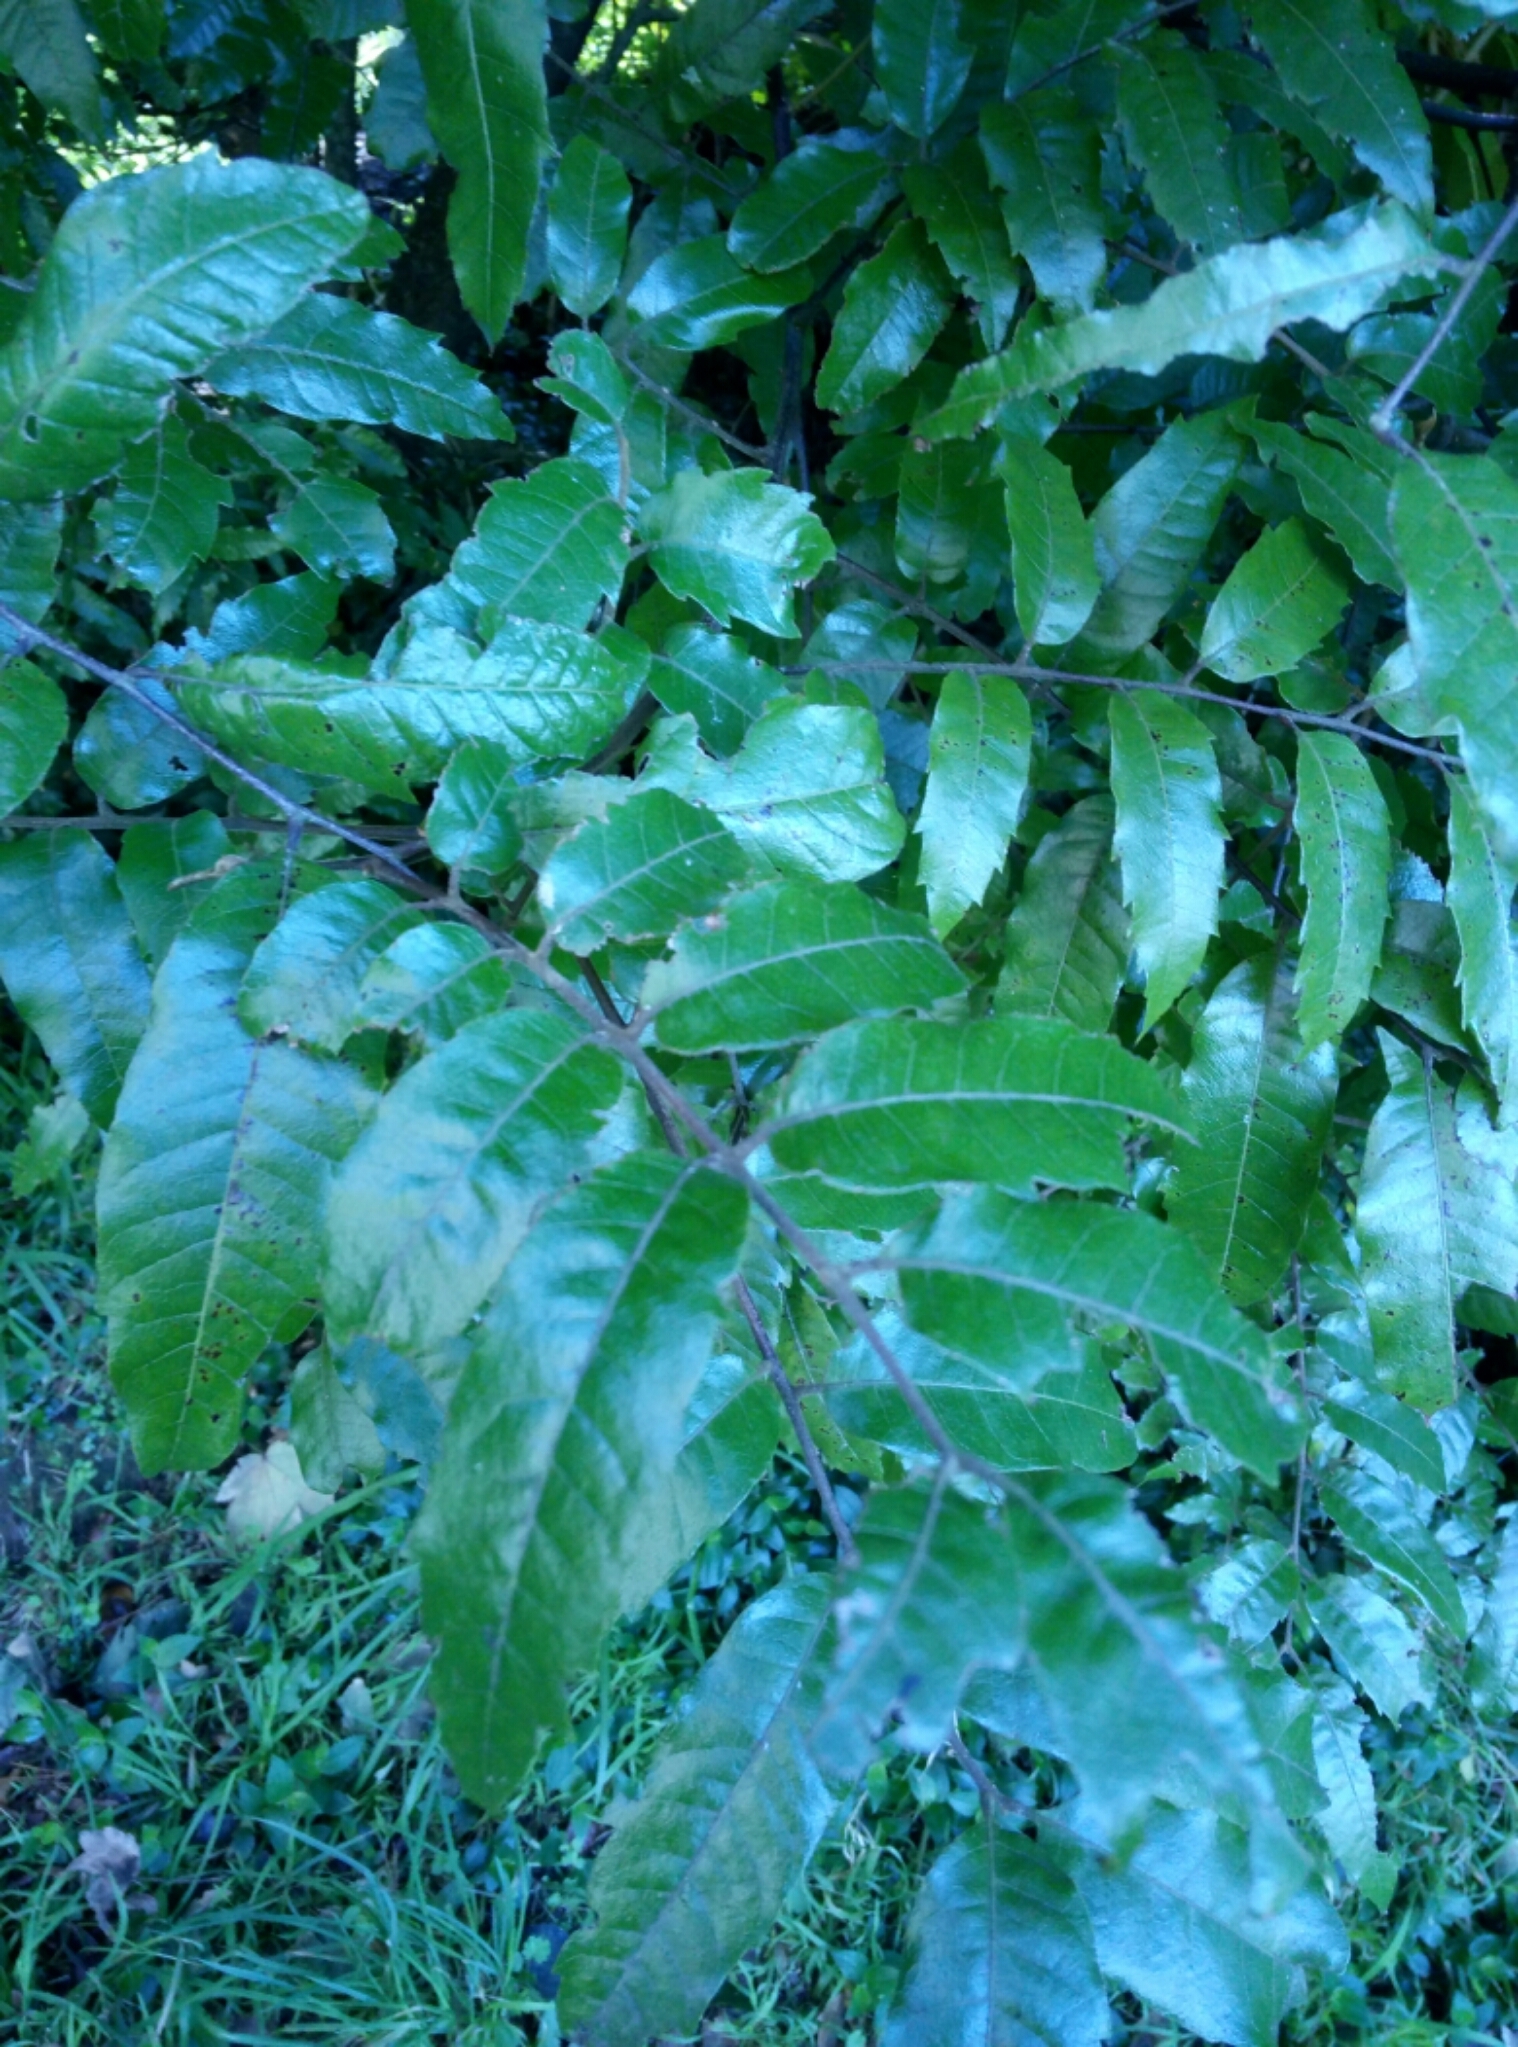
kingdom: Plantae
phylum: Tracheophyta
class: Magnoliopsida
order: Sapindales
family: Sapindaceae
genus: Alectryon
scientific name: Alectryon excelsus
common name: Three kings titoki
